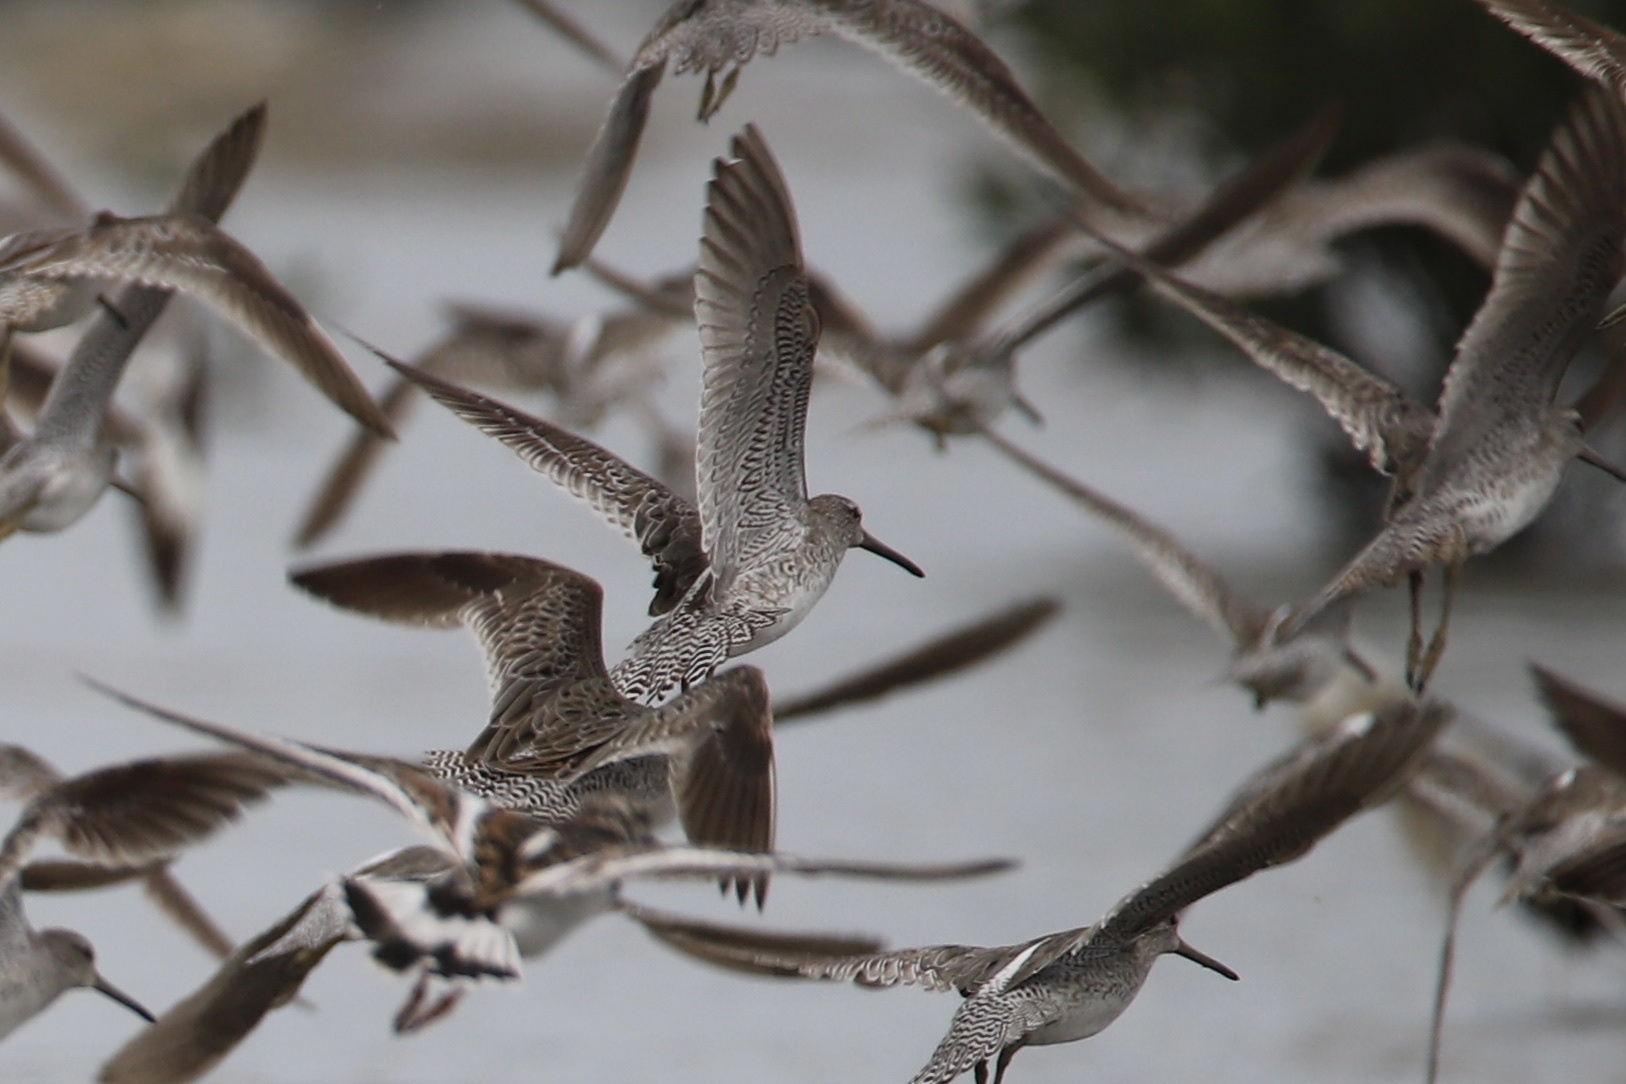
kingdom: Animalia
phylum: Chordata
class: Aves
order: Charadriiformes
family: Scolopacidae
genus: Limnodromus
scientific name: Limnodromus griseus
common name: Short-billed dowitcher
